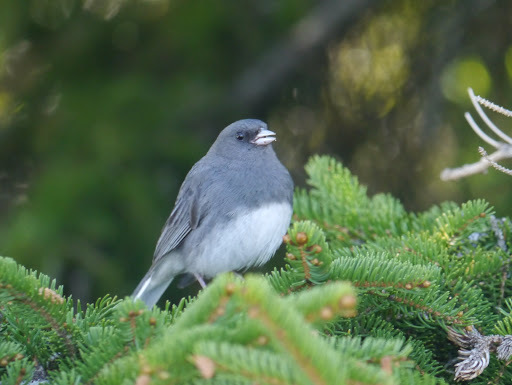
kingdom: Animalia
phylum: Chordata
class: Aves
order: Passeriformes
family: Passerellidae
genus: Junco
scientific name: Junco hyemalis
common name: Dark-eyed junco
